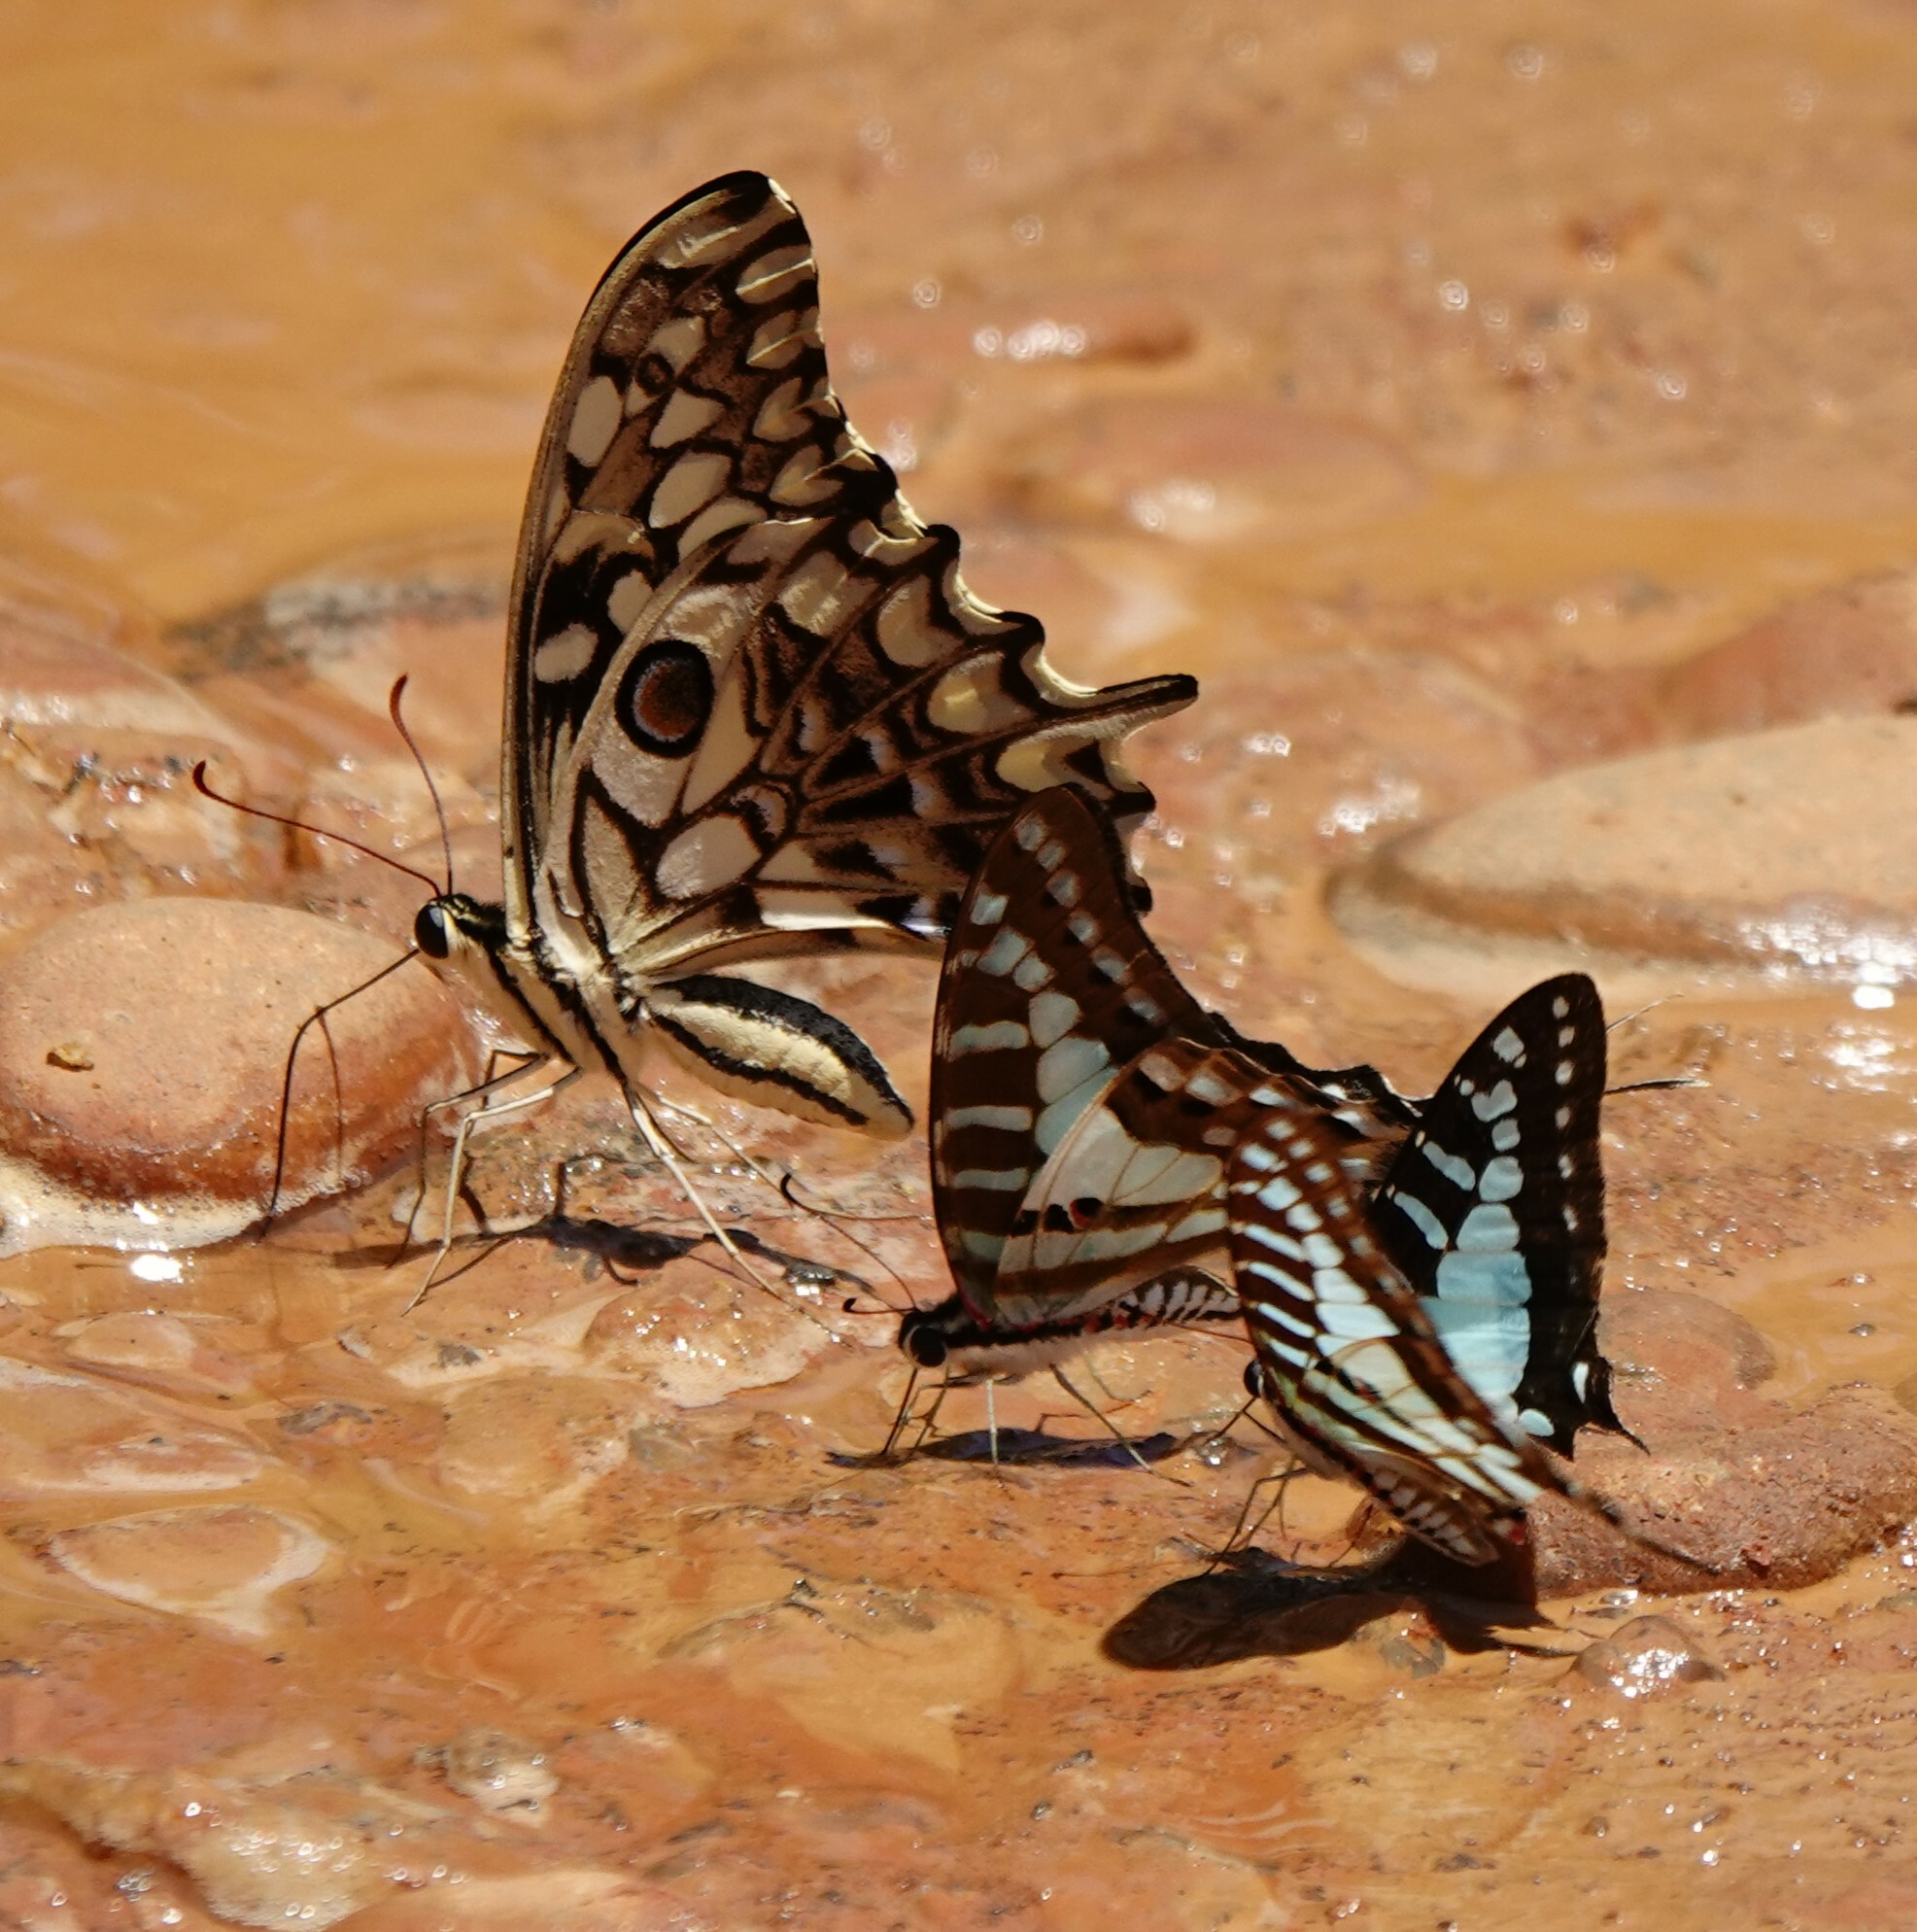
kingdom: Animalia
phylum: Arthropoda
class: Insecta
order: Lepidoptera
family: Papilionidae
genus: Graphium
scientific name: Graphium evombar
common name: Madagascan striped swordtail
